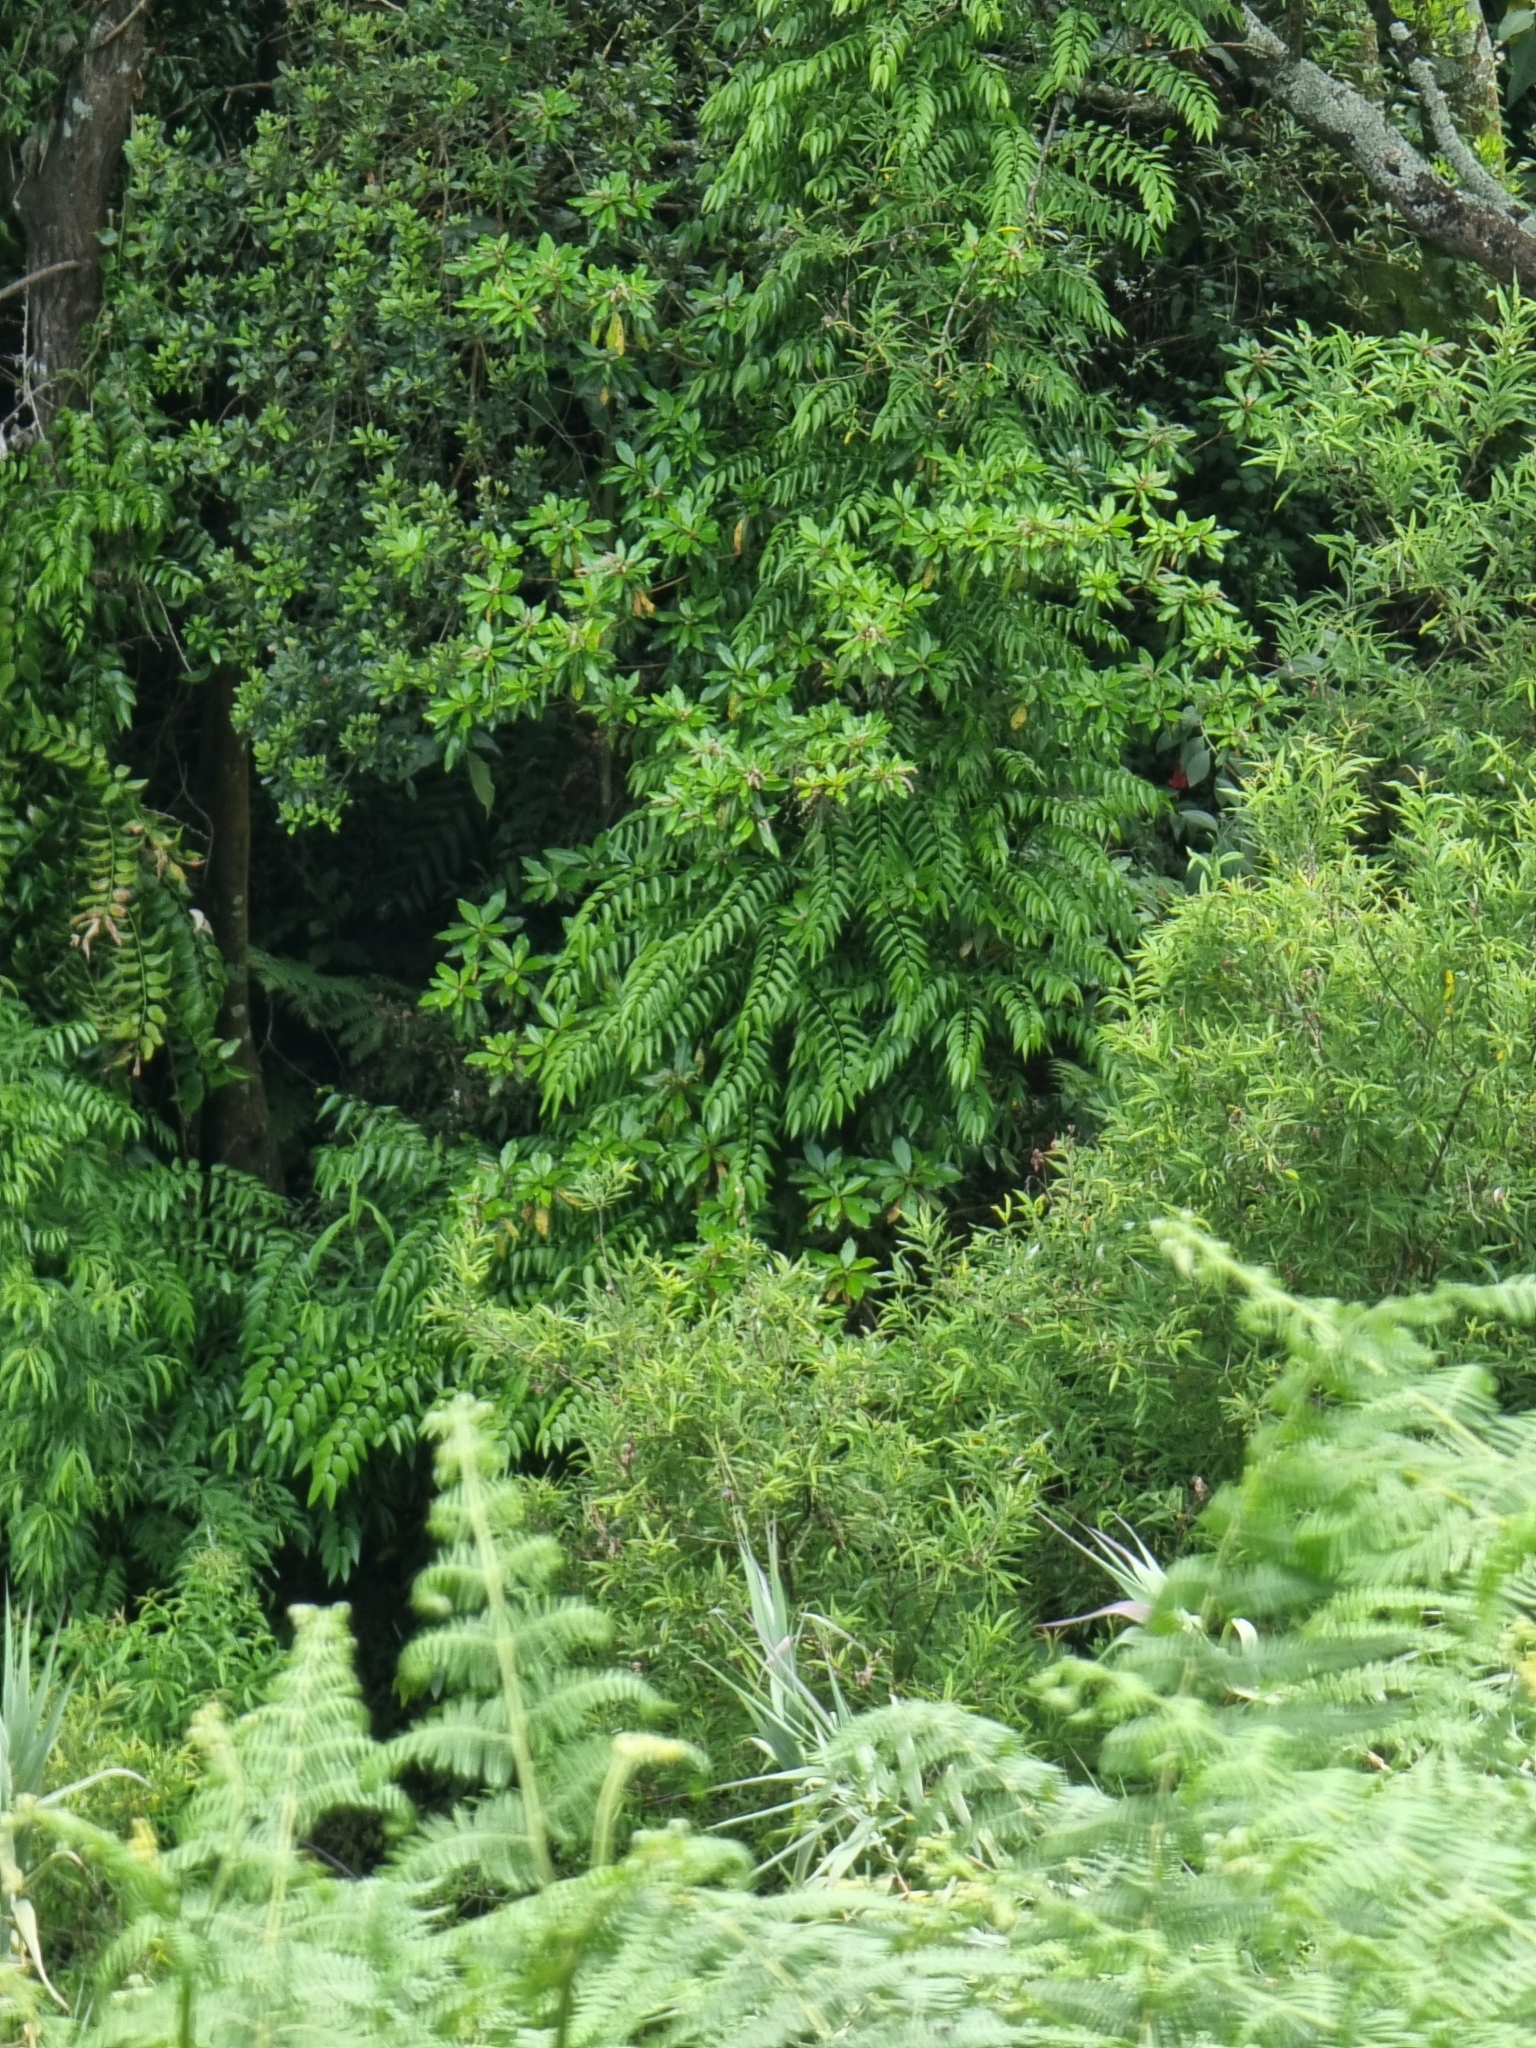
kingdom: Plantae
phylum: Tracheophyta
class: Liliopsida
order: Asparagales
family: Asparagaceae
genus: Semele
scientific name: Semele androgyna
